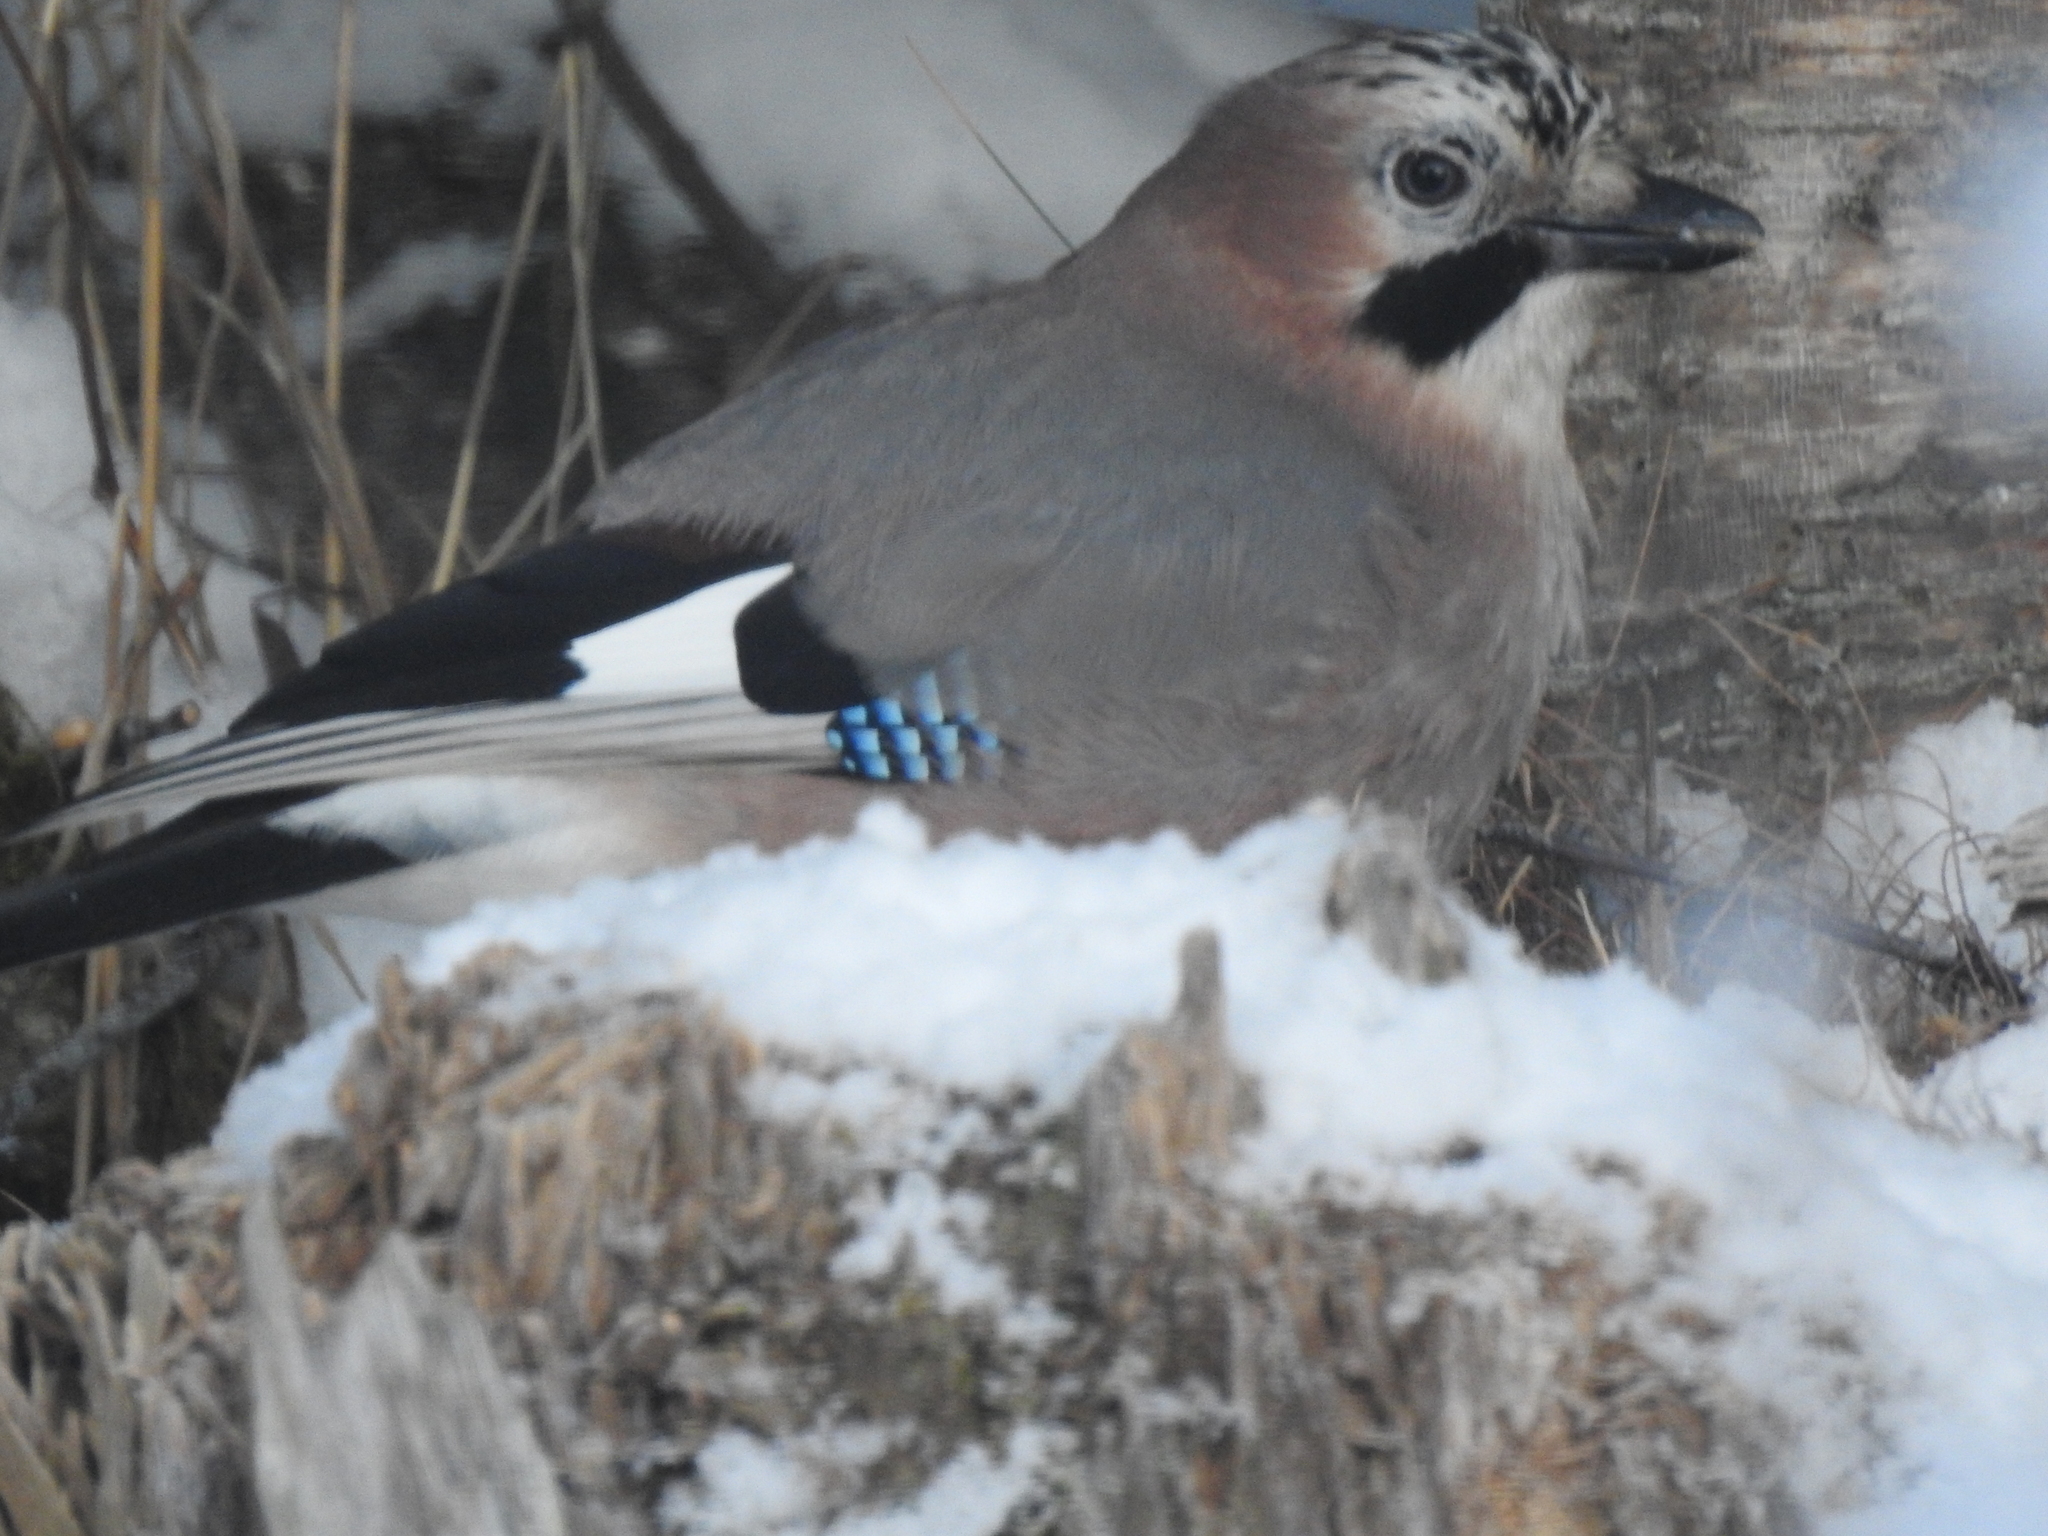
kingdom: Animalia
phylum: Chordata
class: Aves
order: Passeriformes
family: Corvidae
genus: Garrulus
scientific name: Garrulus glandarius
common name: Eurasian jay
